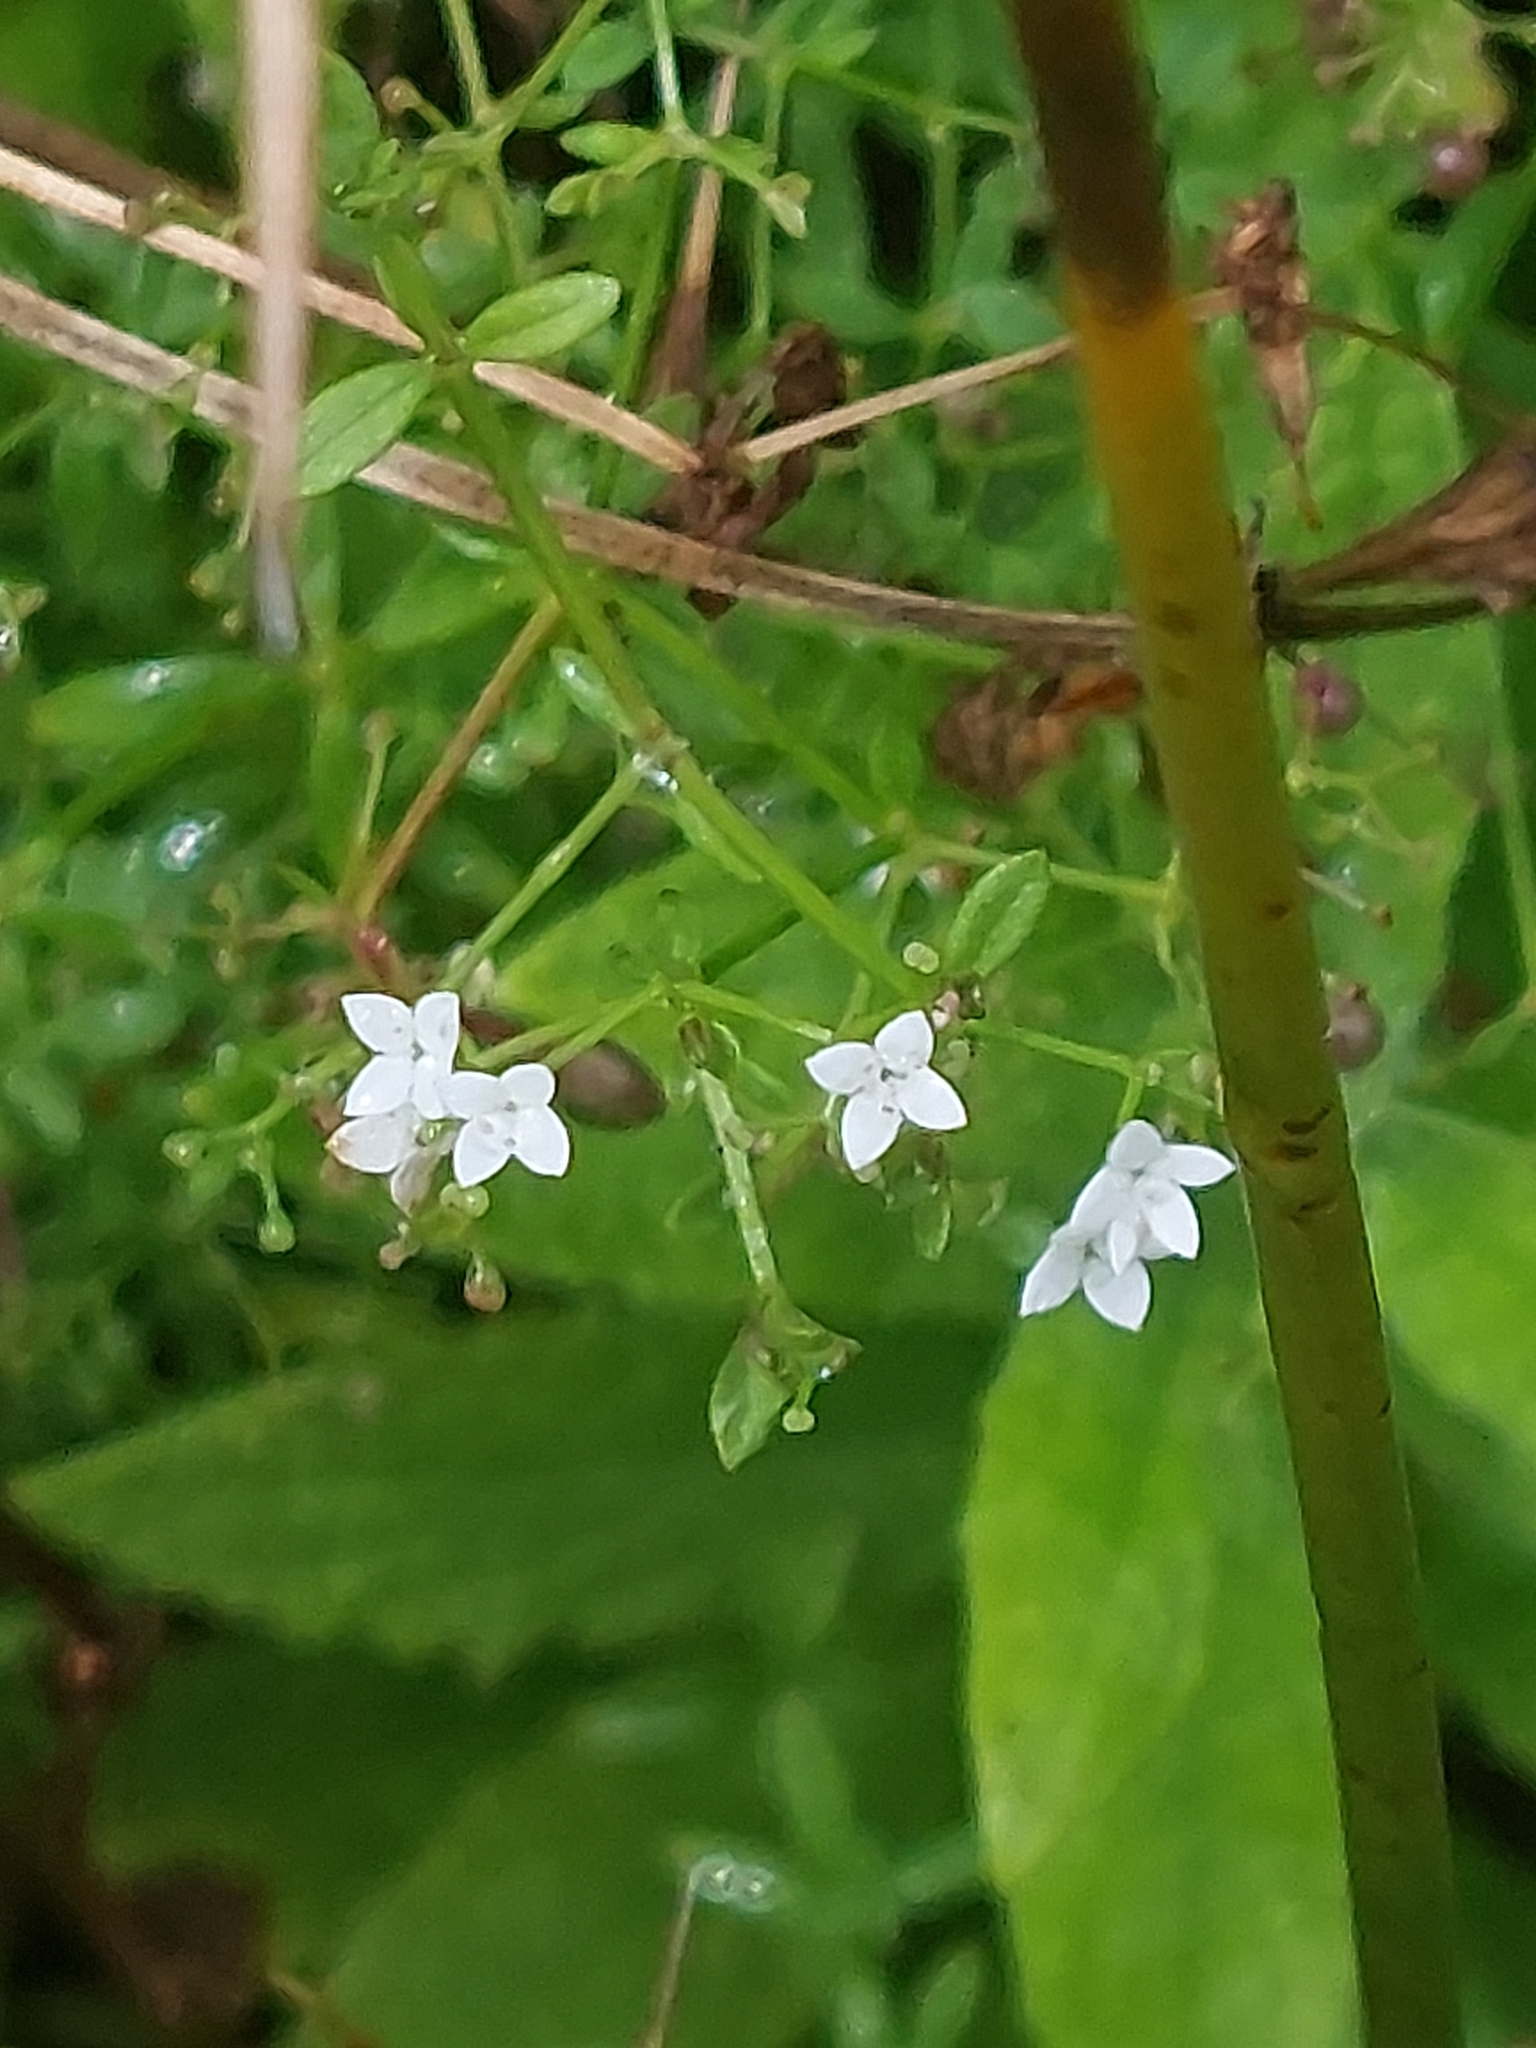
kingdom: Plantae
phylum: Tracheophyta
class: Magnoliopsida
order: Gentianales
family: Rubiaceae
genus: Galium
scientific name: Galium palustre
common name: Common marsh-bedstraw
